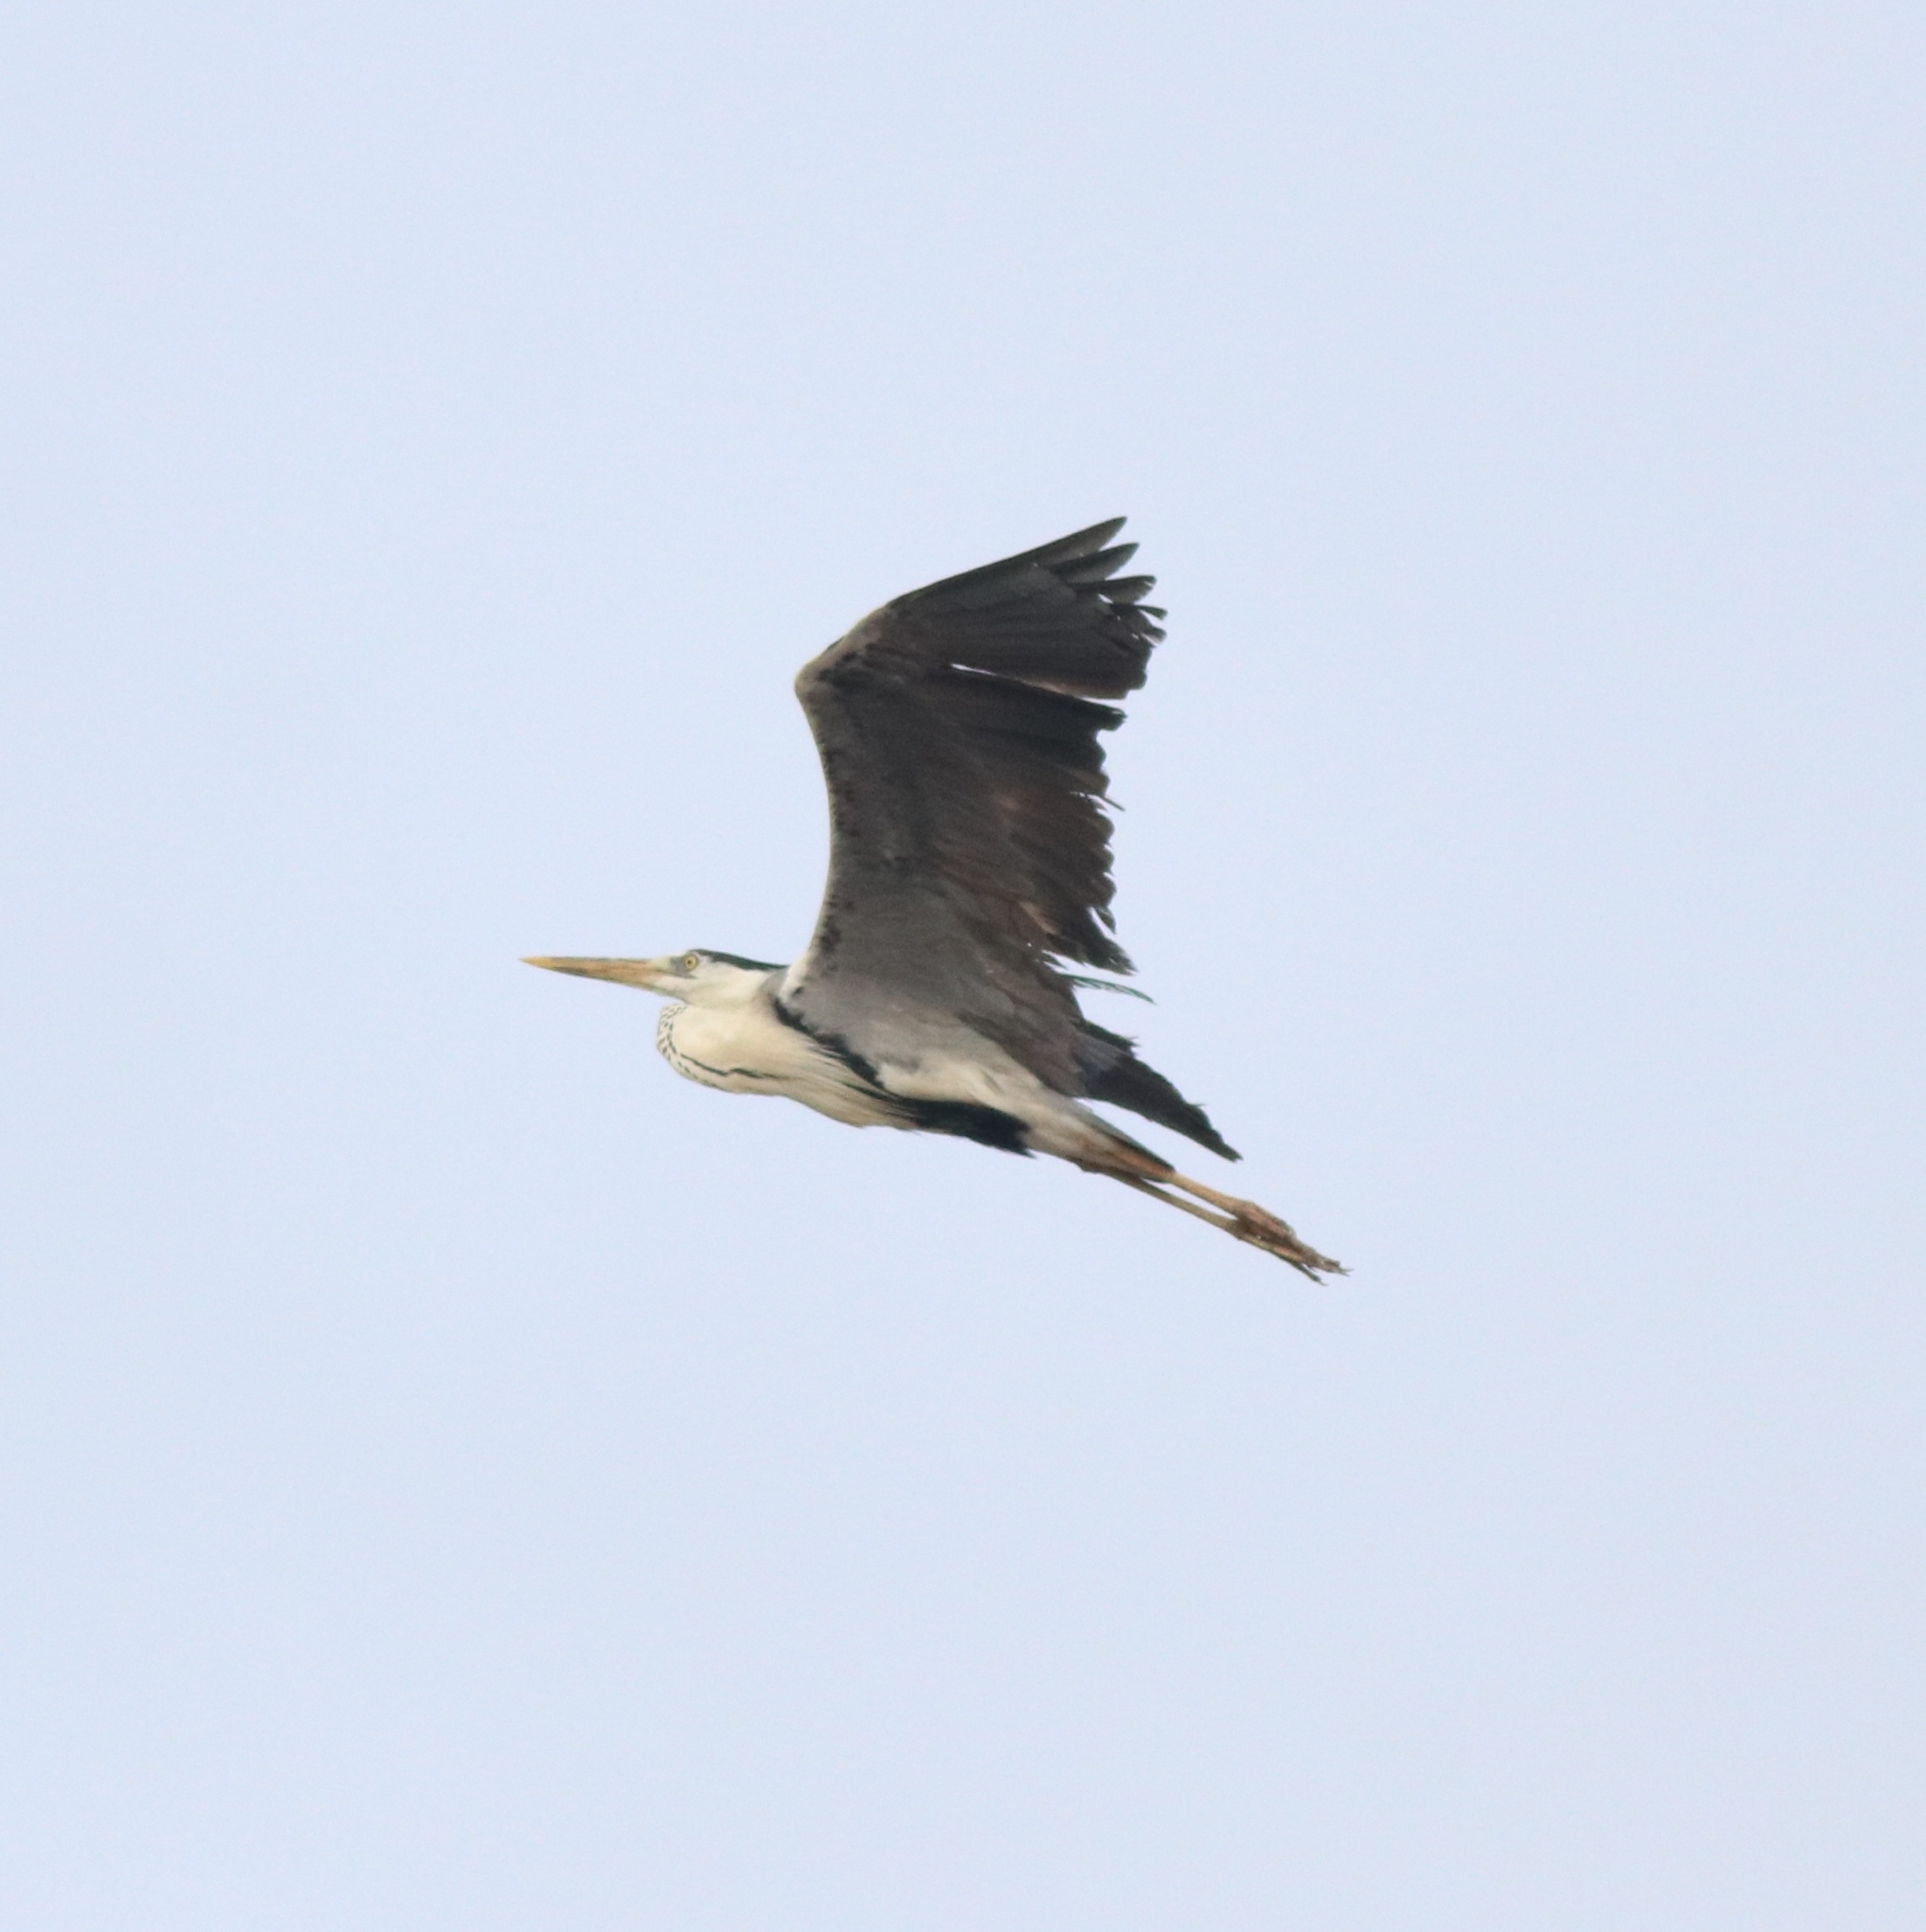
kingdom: Animalia
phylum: Chordata
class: Aves
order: Pelecaniformes
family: Ardeidae
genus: Ardea
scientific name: Ardea cinerea
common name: Grey heron
